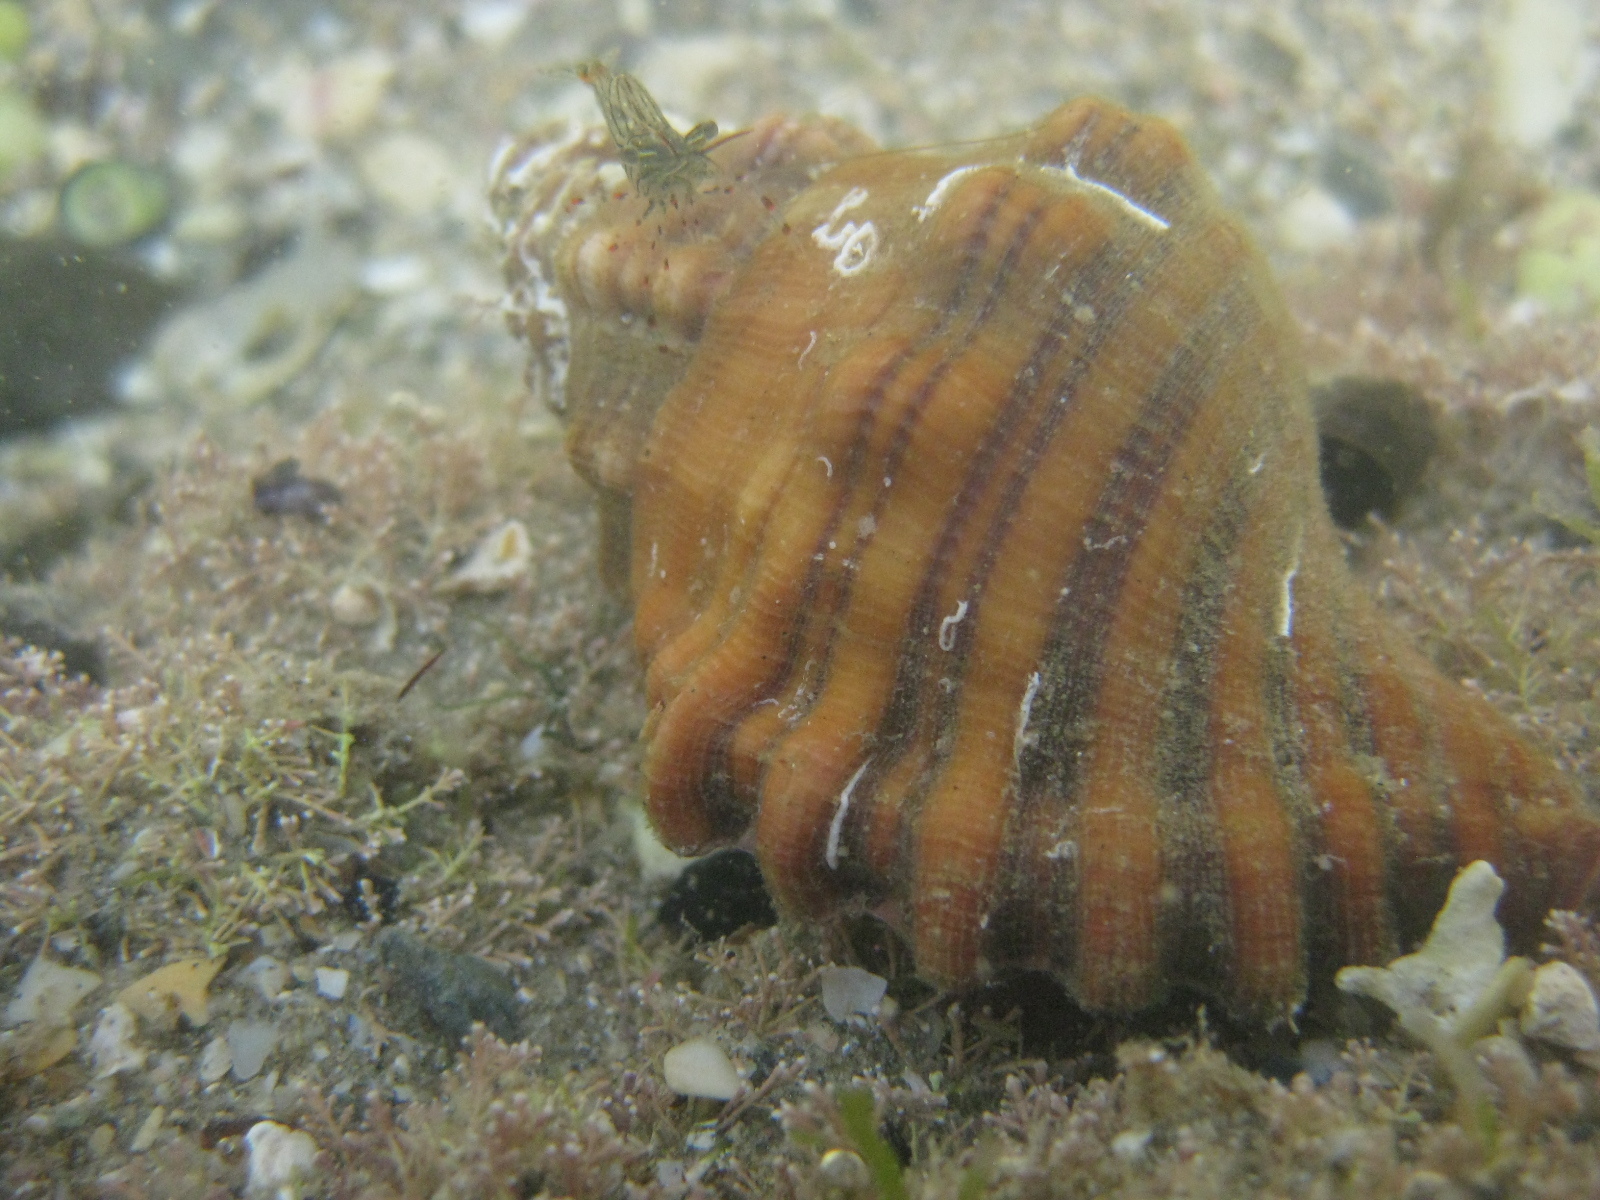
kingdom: Animalia
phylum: Arthropoda
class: Malacostraca
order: Decapoda
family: Palaemonidae
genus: Palaemon
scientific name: Palaemon affinis
